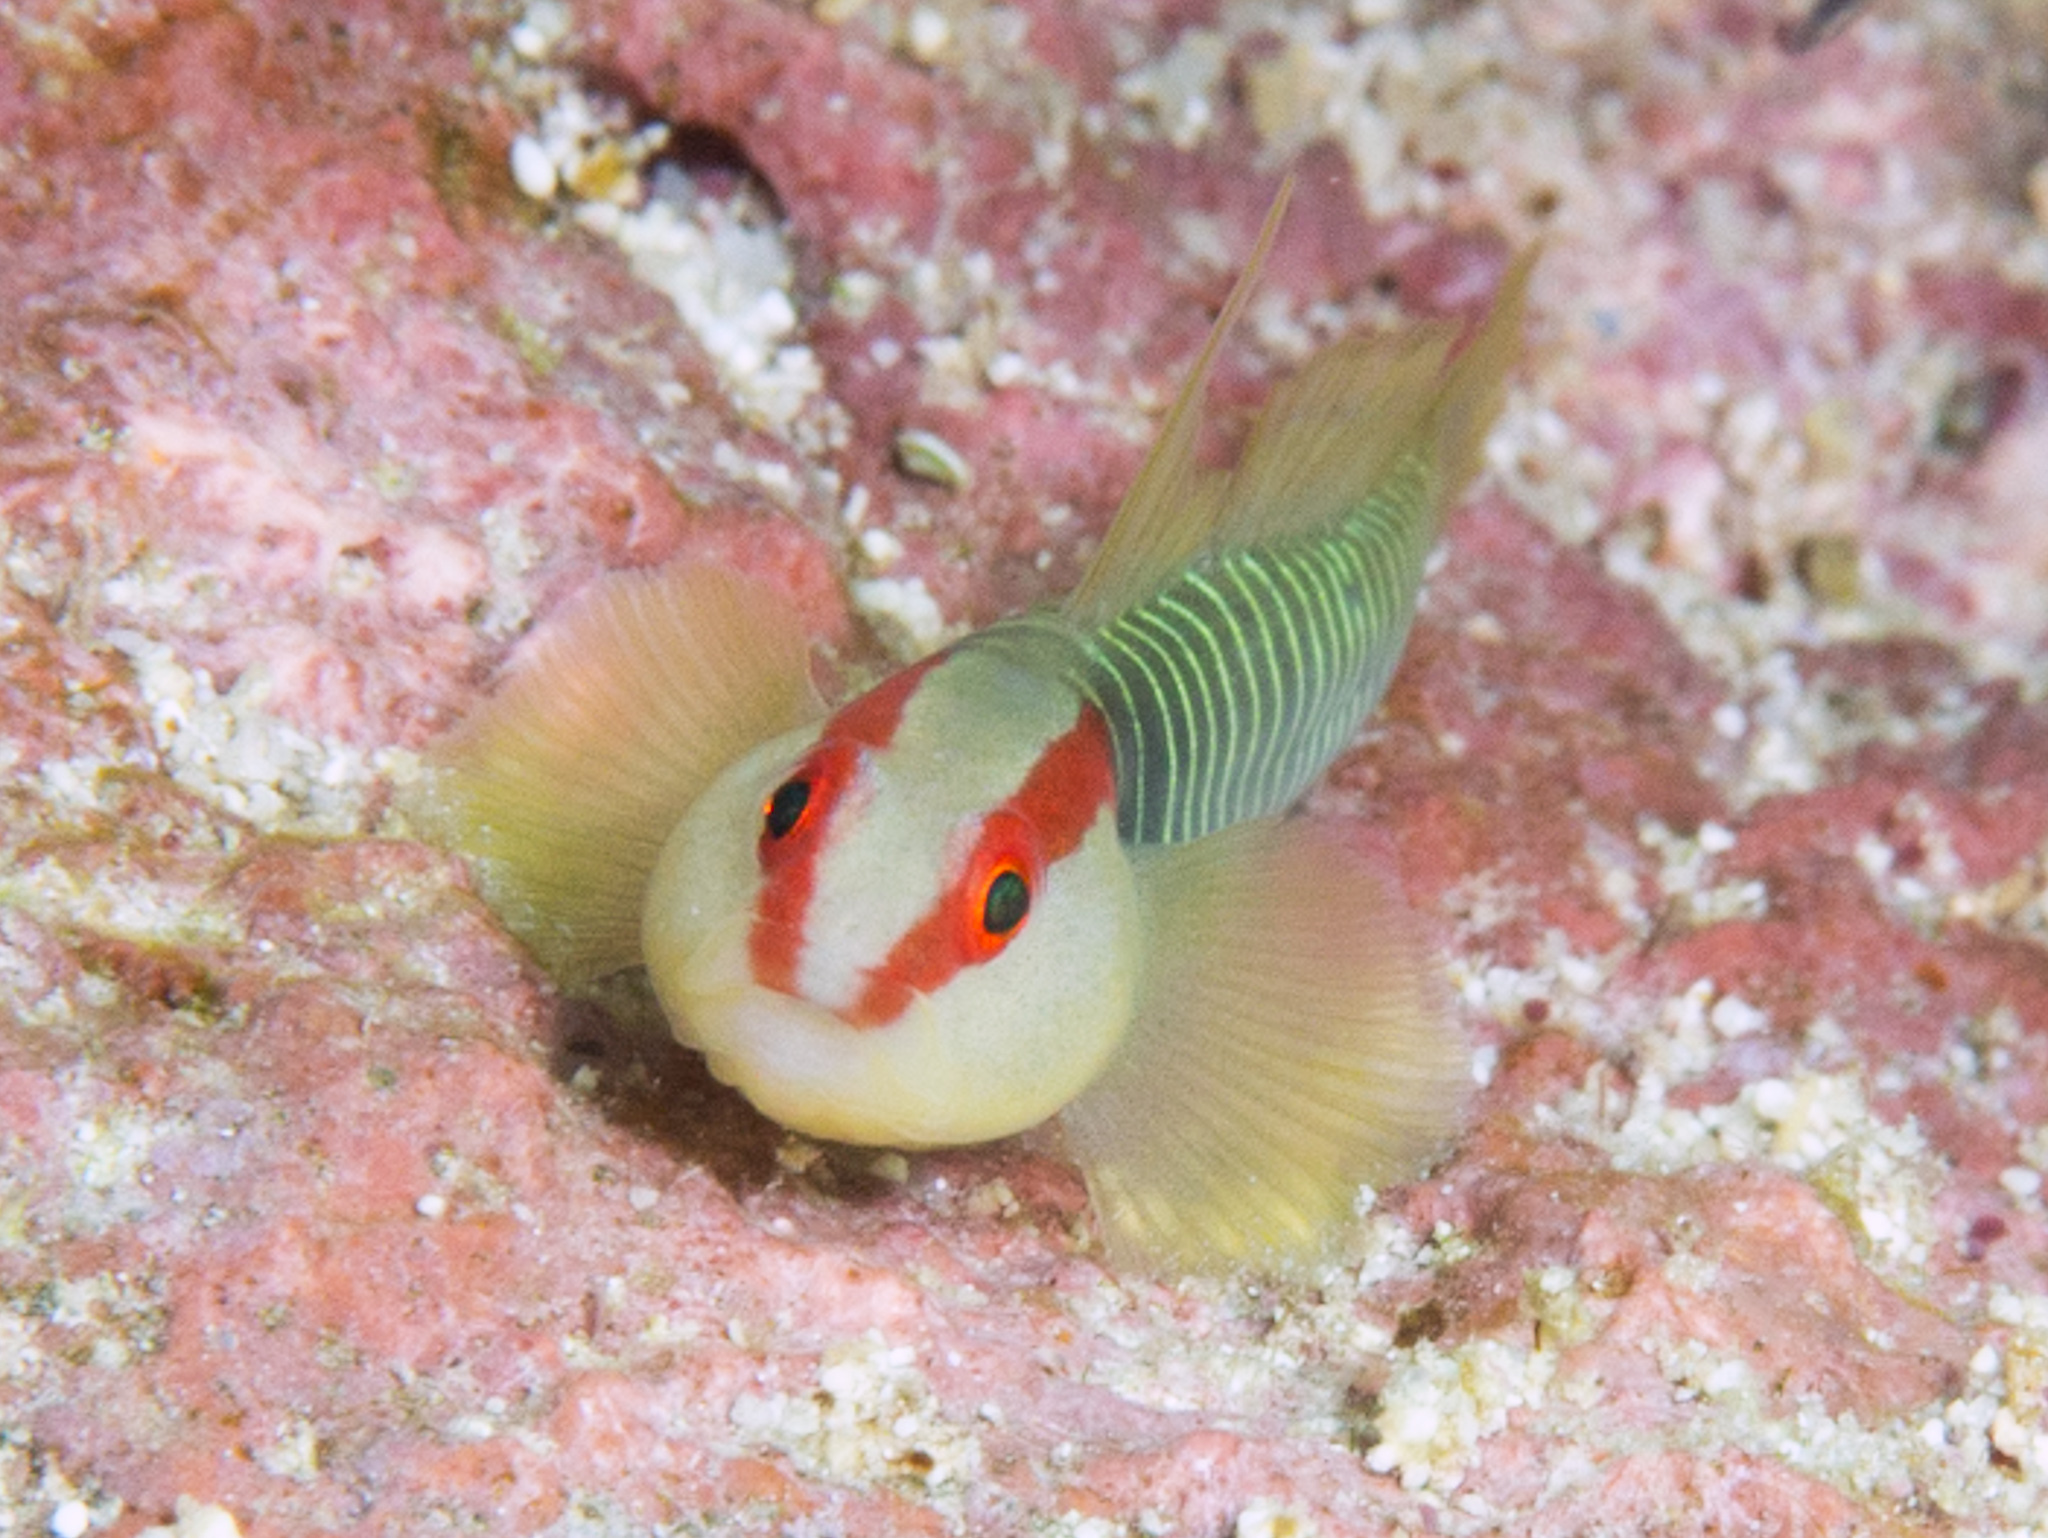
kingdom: Animalia
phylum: Chordata
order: Perciformes
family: Gobiidae
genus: Tigrigobius
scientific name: Tigrigobius harveyi
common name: Cayman greenbanded goby
